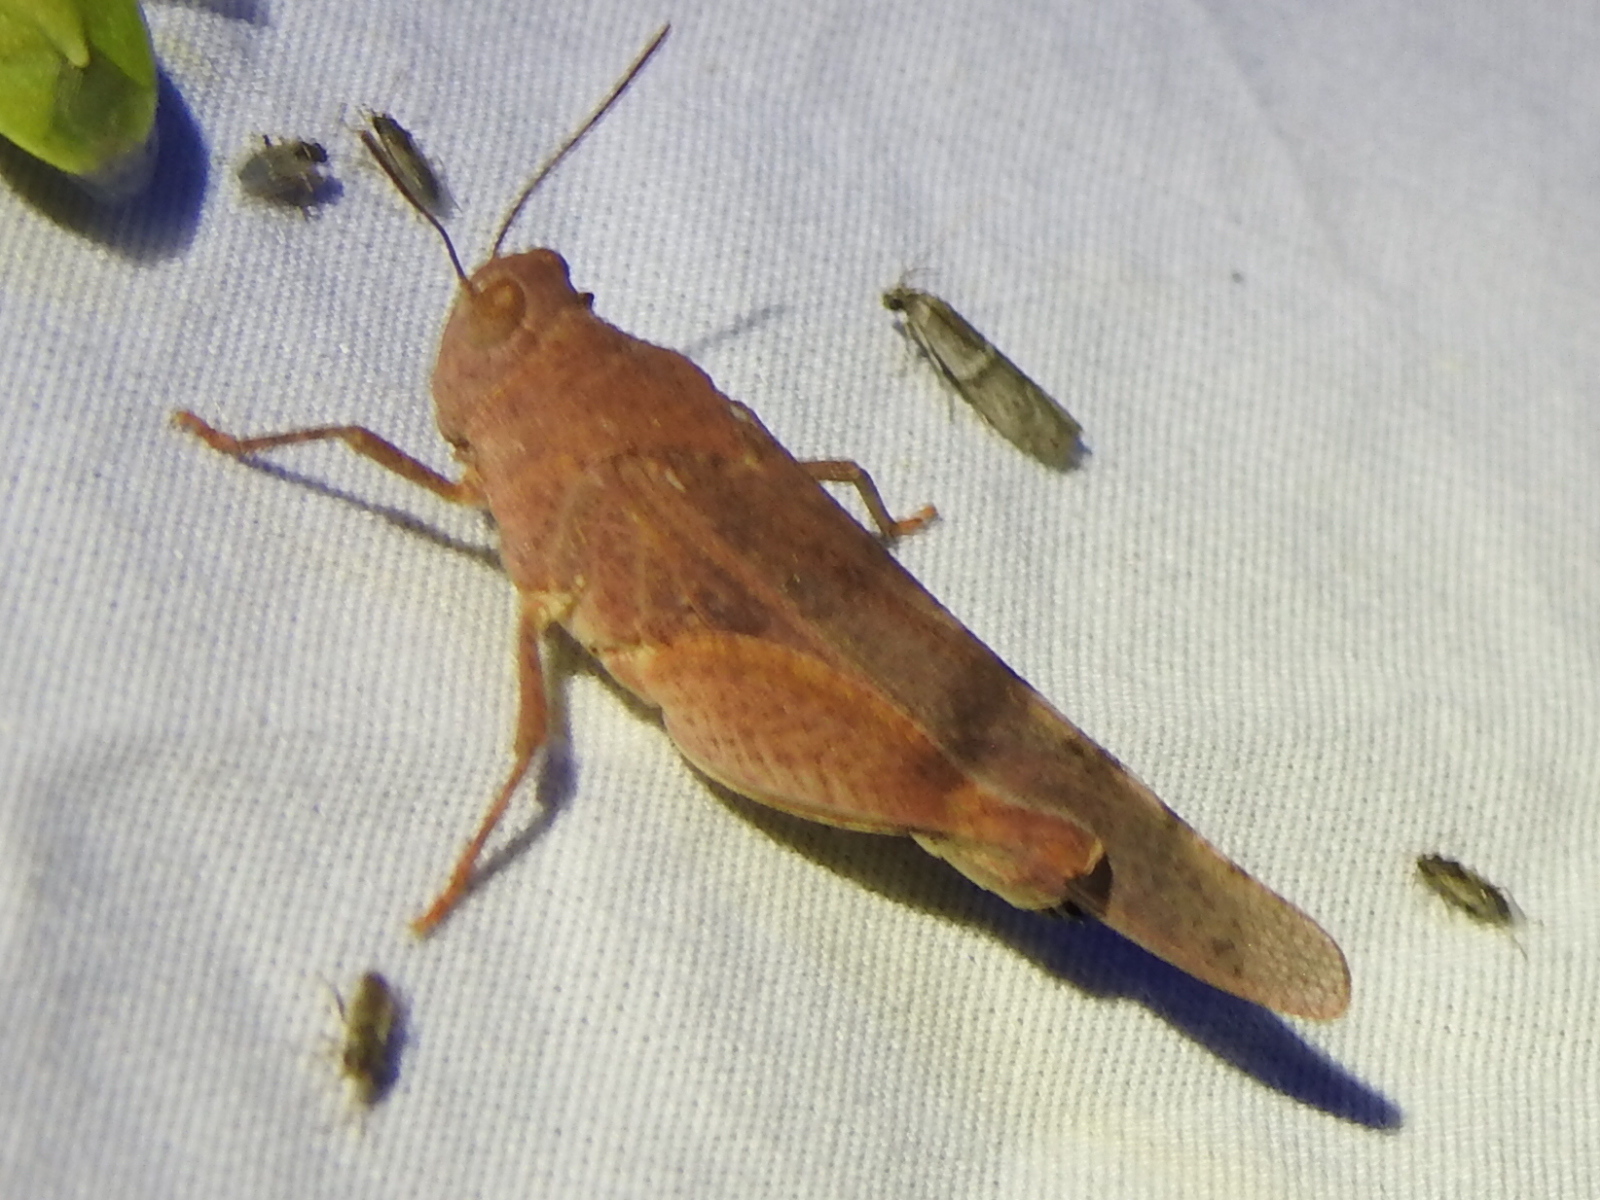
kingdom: Animalia
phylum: Arthropoda
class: Insecta
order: Orthoptera
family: Acrididae
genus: Lactista
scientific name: Lactista azteca
